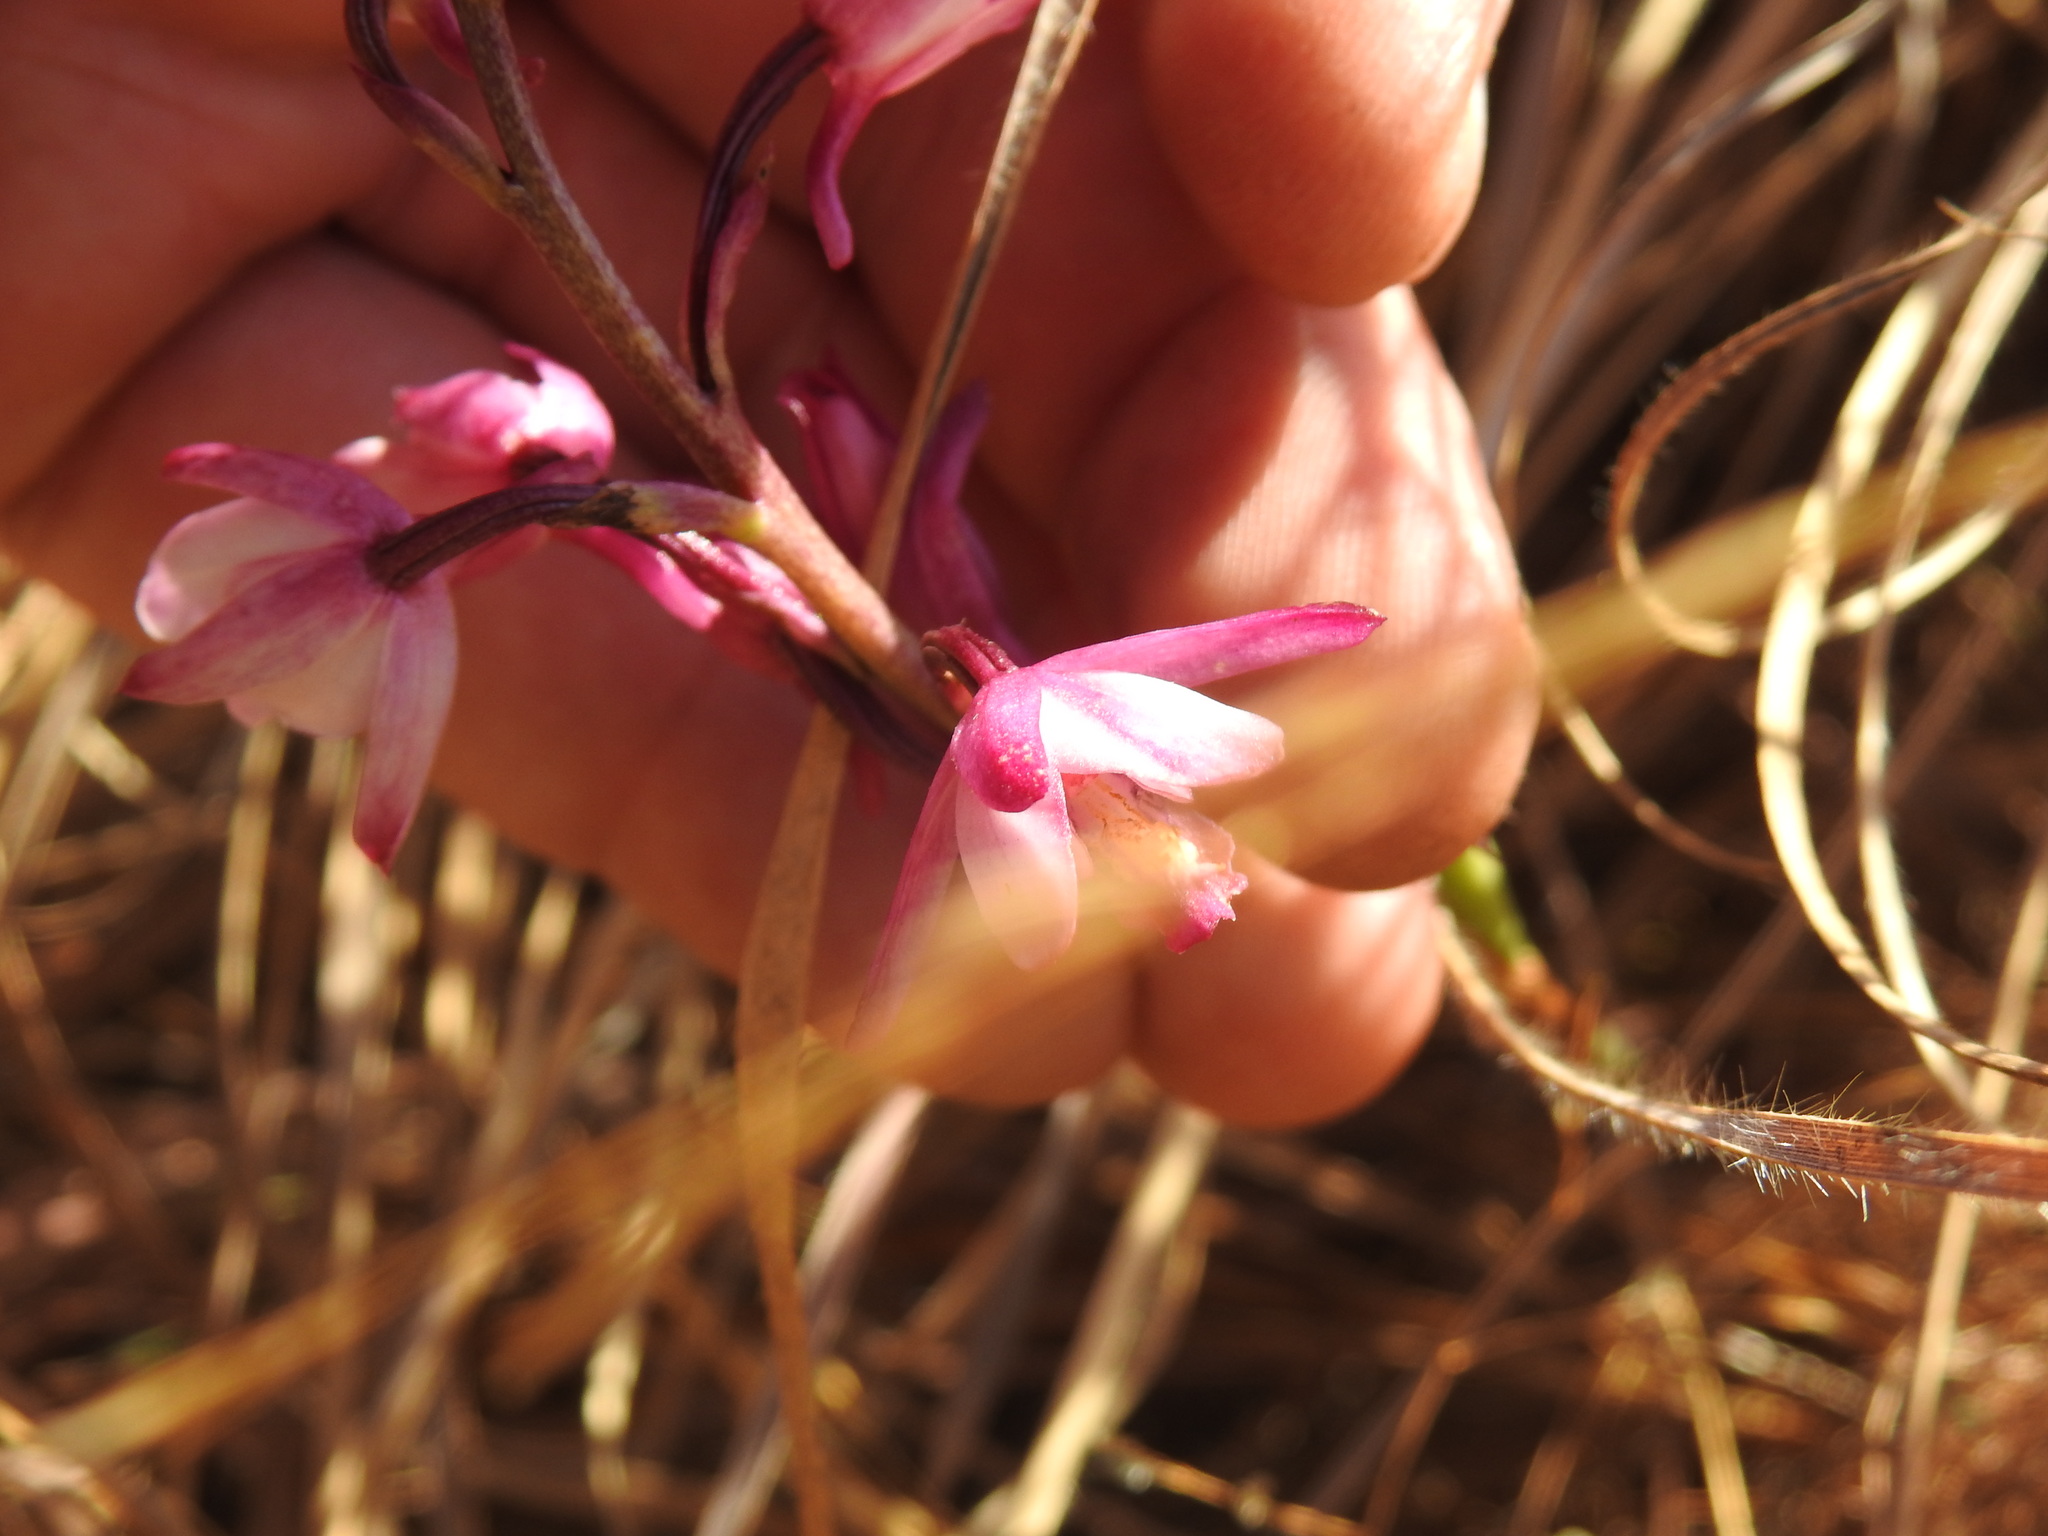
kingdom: Plantae
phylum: Tracheophyta
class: Liliopsida
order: Asparagales
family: Orchidaceae
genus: Eulophia
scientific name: Eulophia hians
